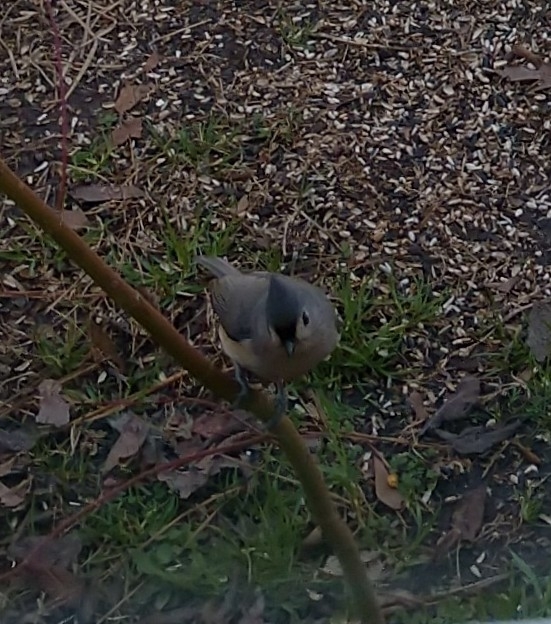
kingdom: Animalia
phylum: Chordata
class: Aves
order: Passeriformes
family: Paridae
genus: Baeolophus
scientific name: Baeolophus bicolor
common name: Tufted titmouse
